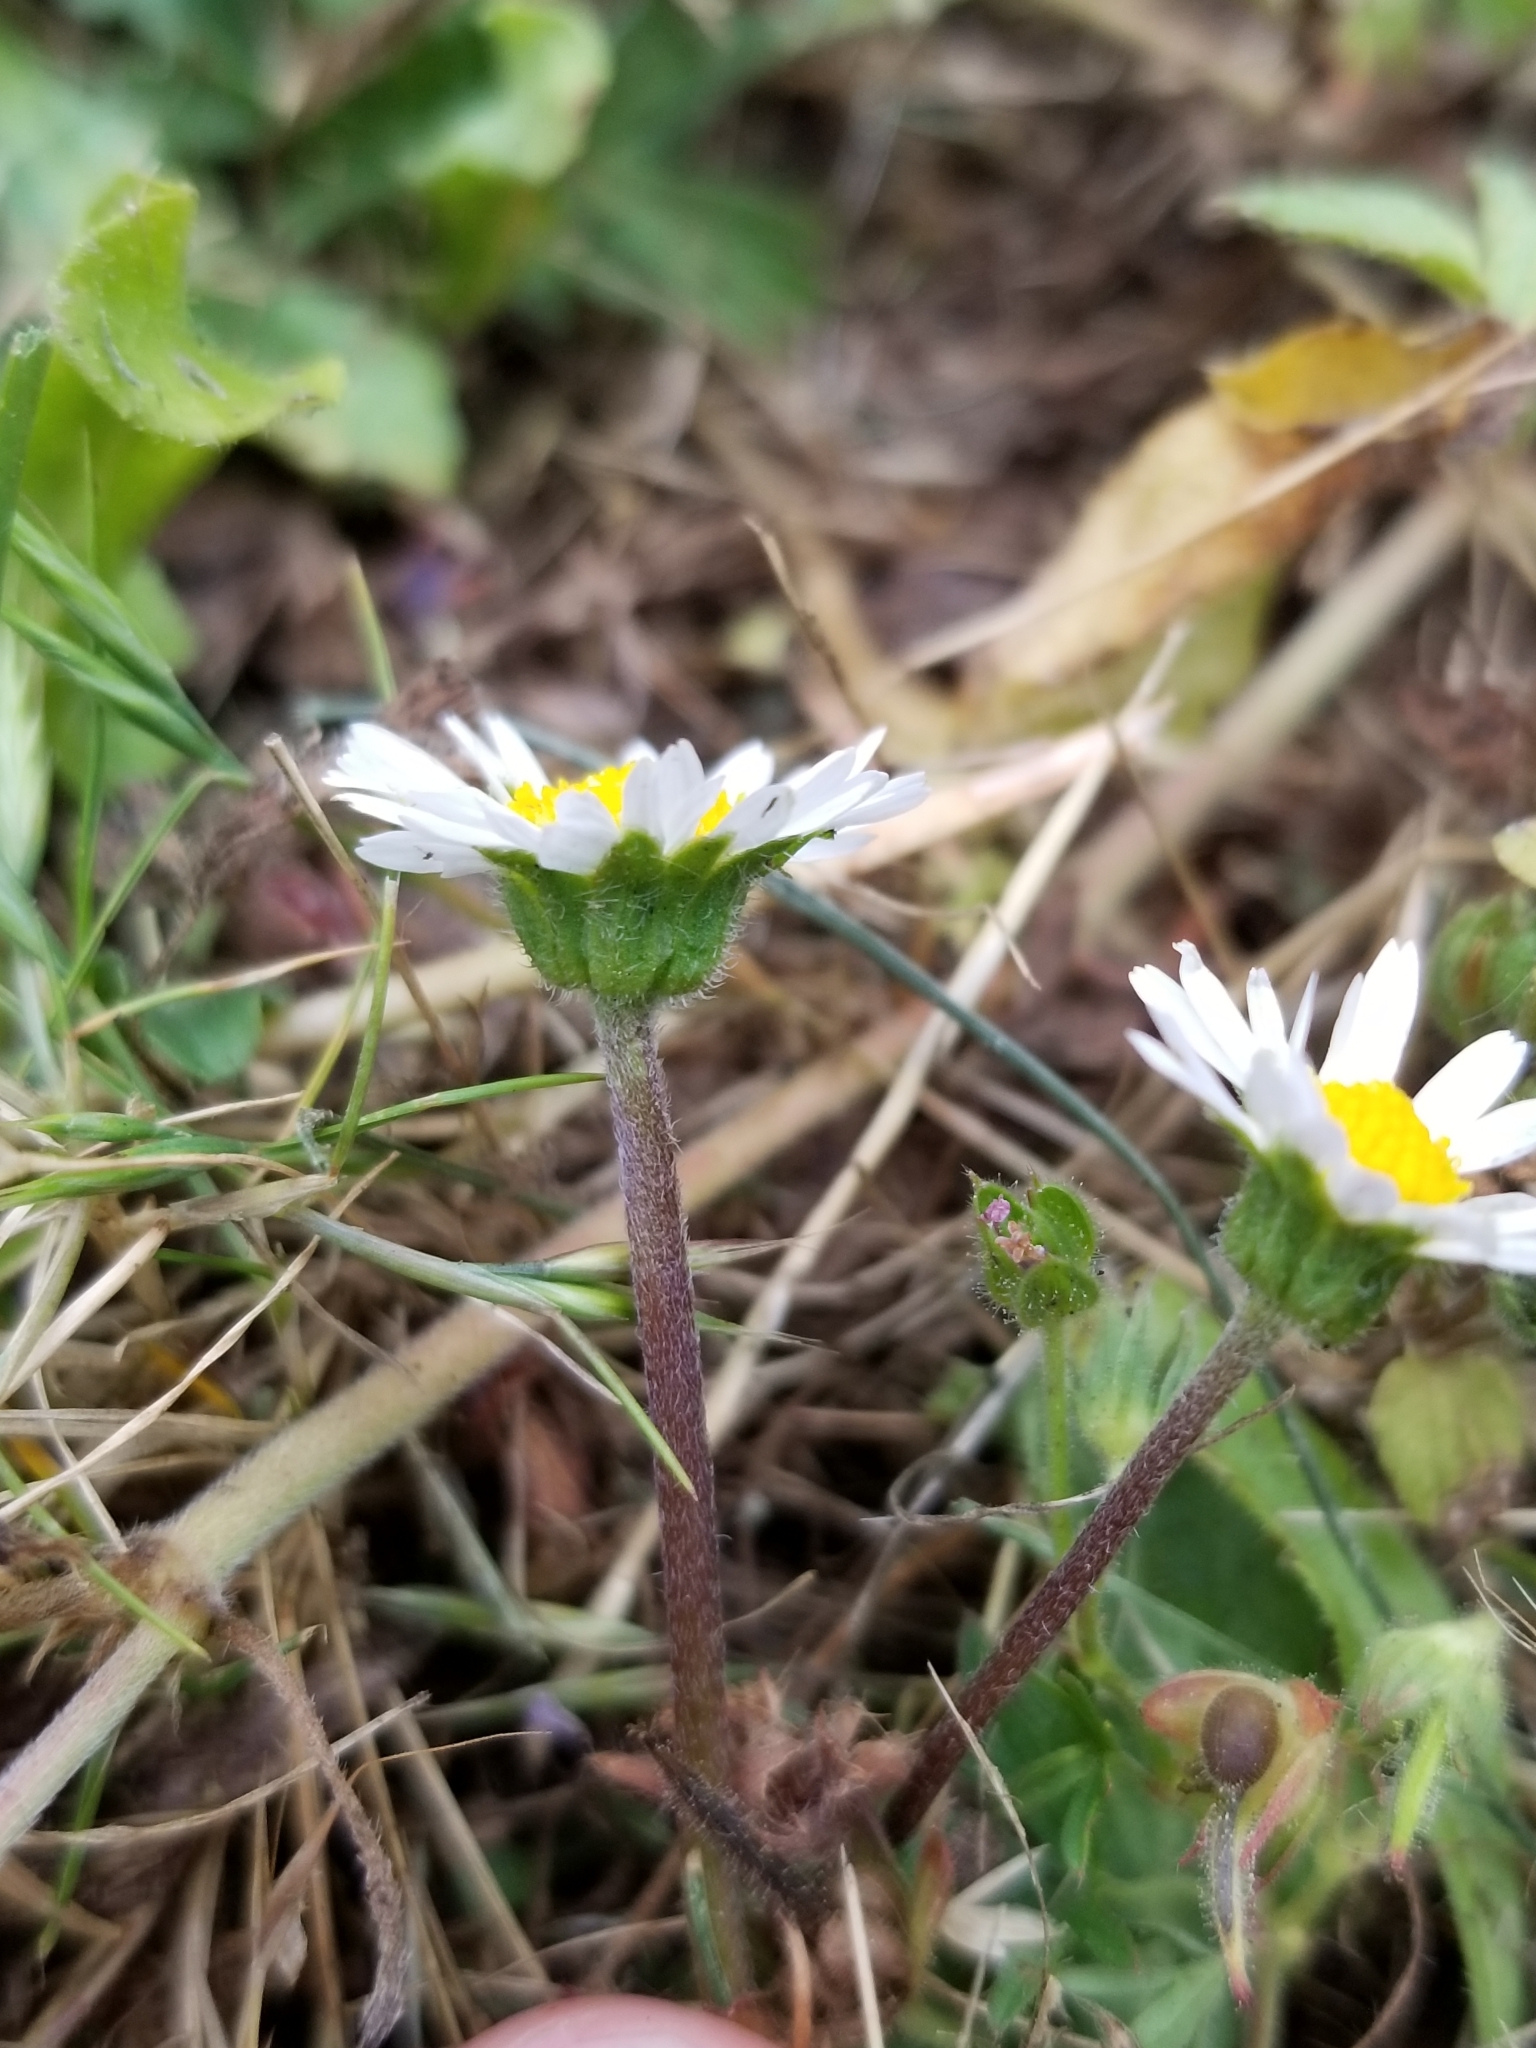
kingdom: Plantae
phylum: Tracheophyta
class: Magnoliopsida
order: Asterales
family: Asteraceae
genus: Bellis
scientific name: Bellis perennis
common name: Lawndaisy
